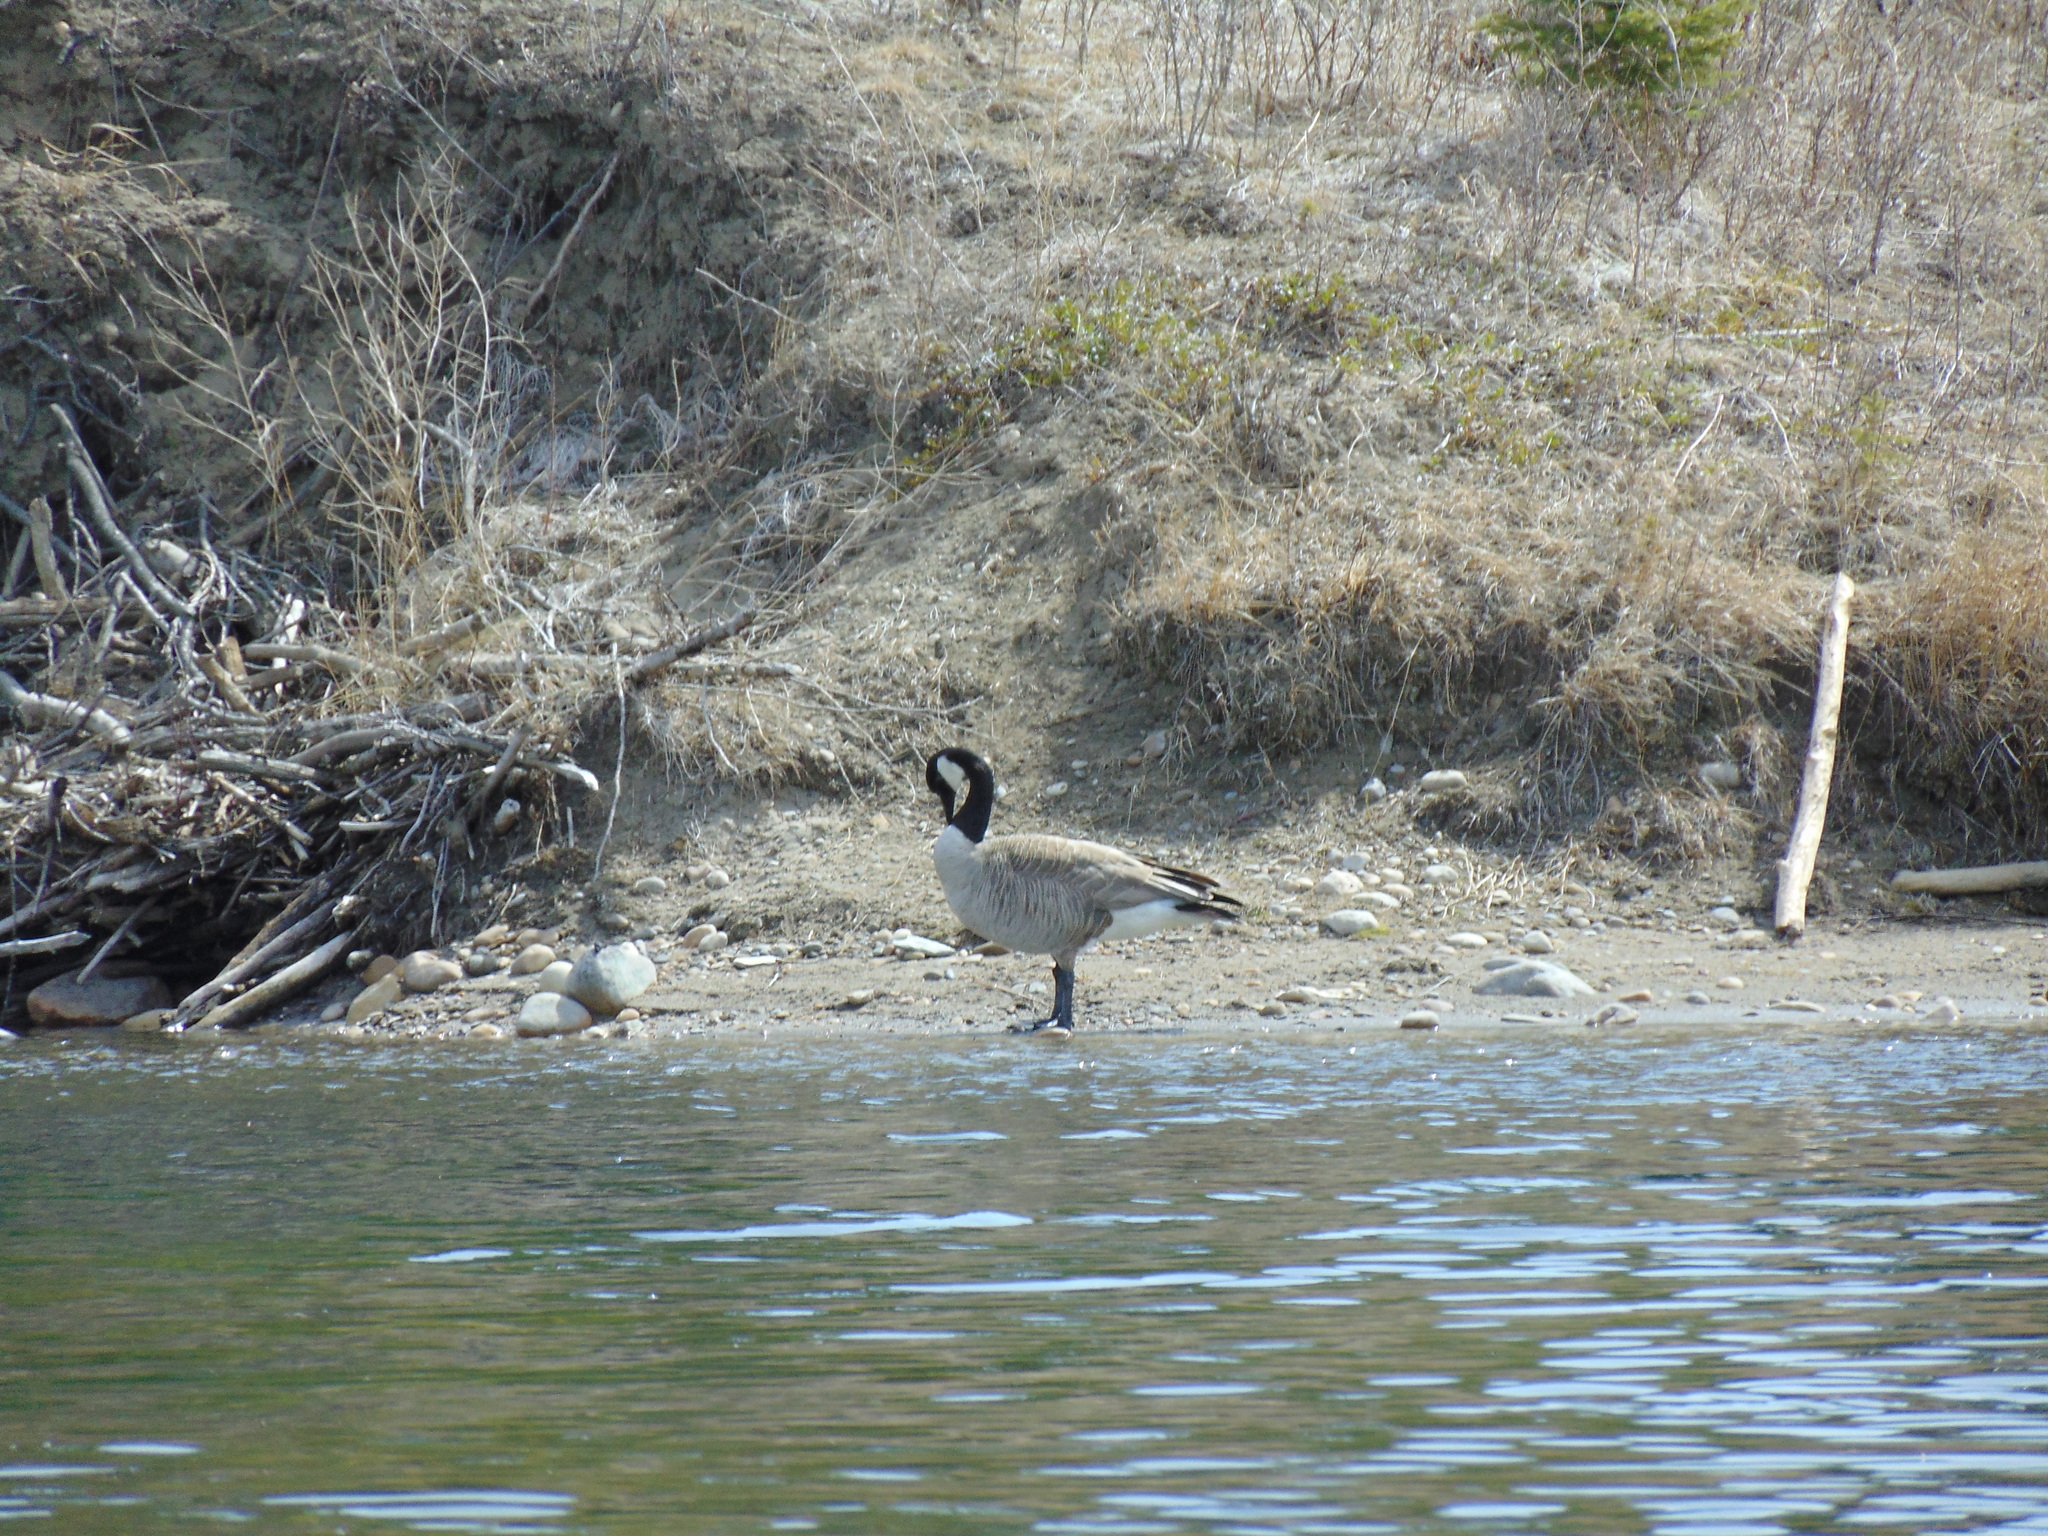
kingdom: Animalia
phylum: Chordata
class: Aves
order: Anseriformes
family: Anatidae
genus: Branta
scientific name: Branta canadensis
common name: Canada goose
